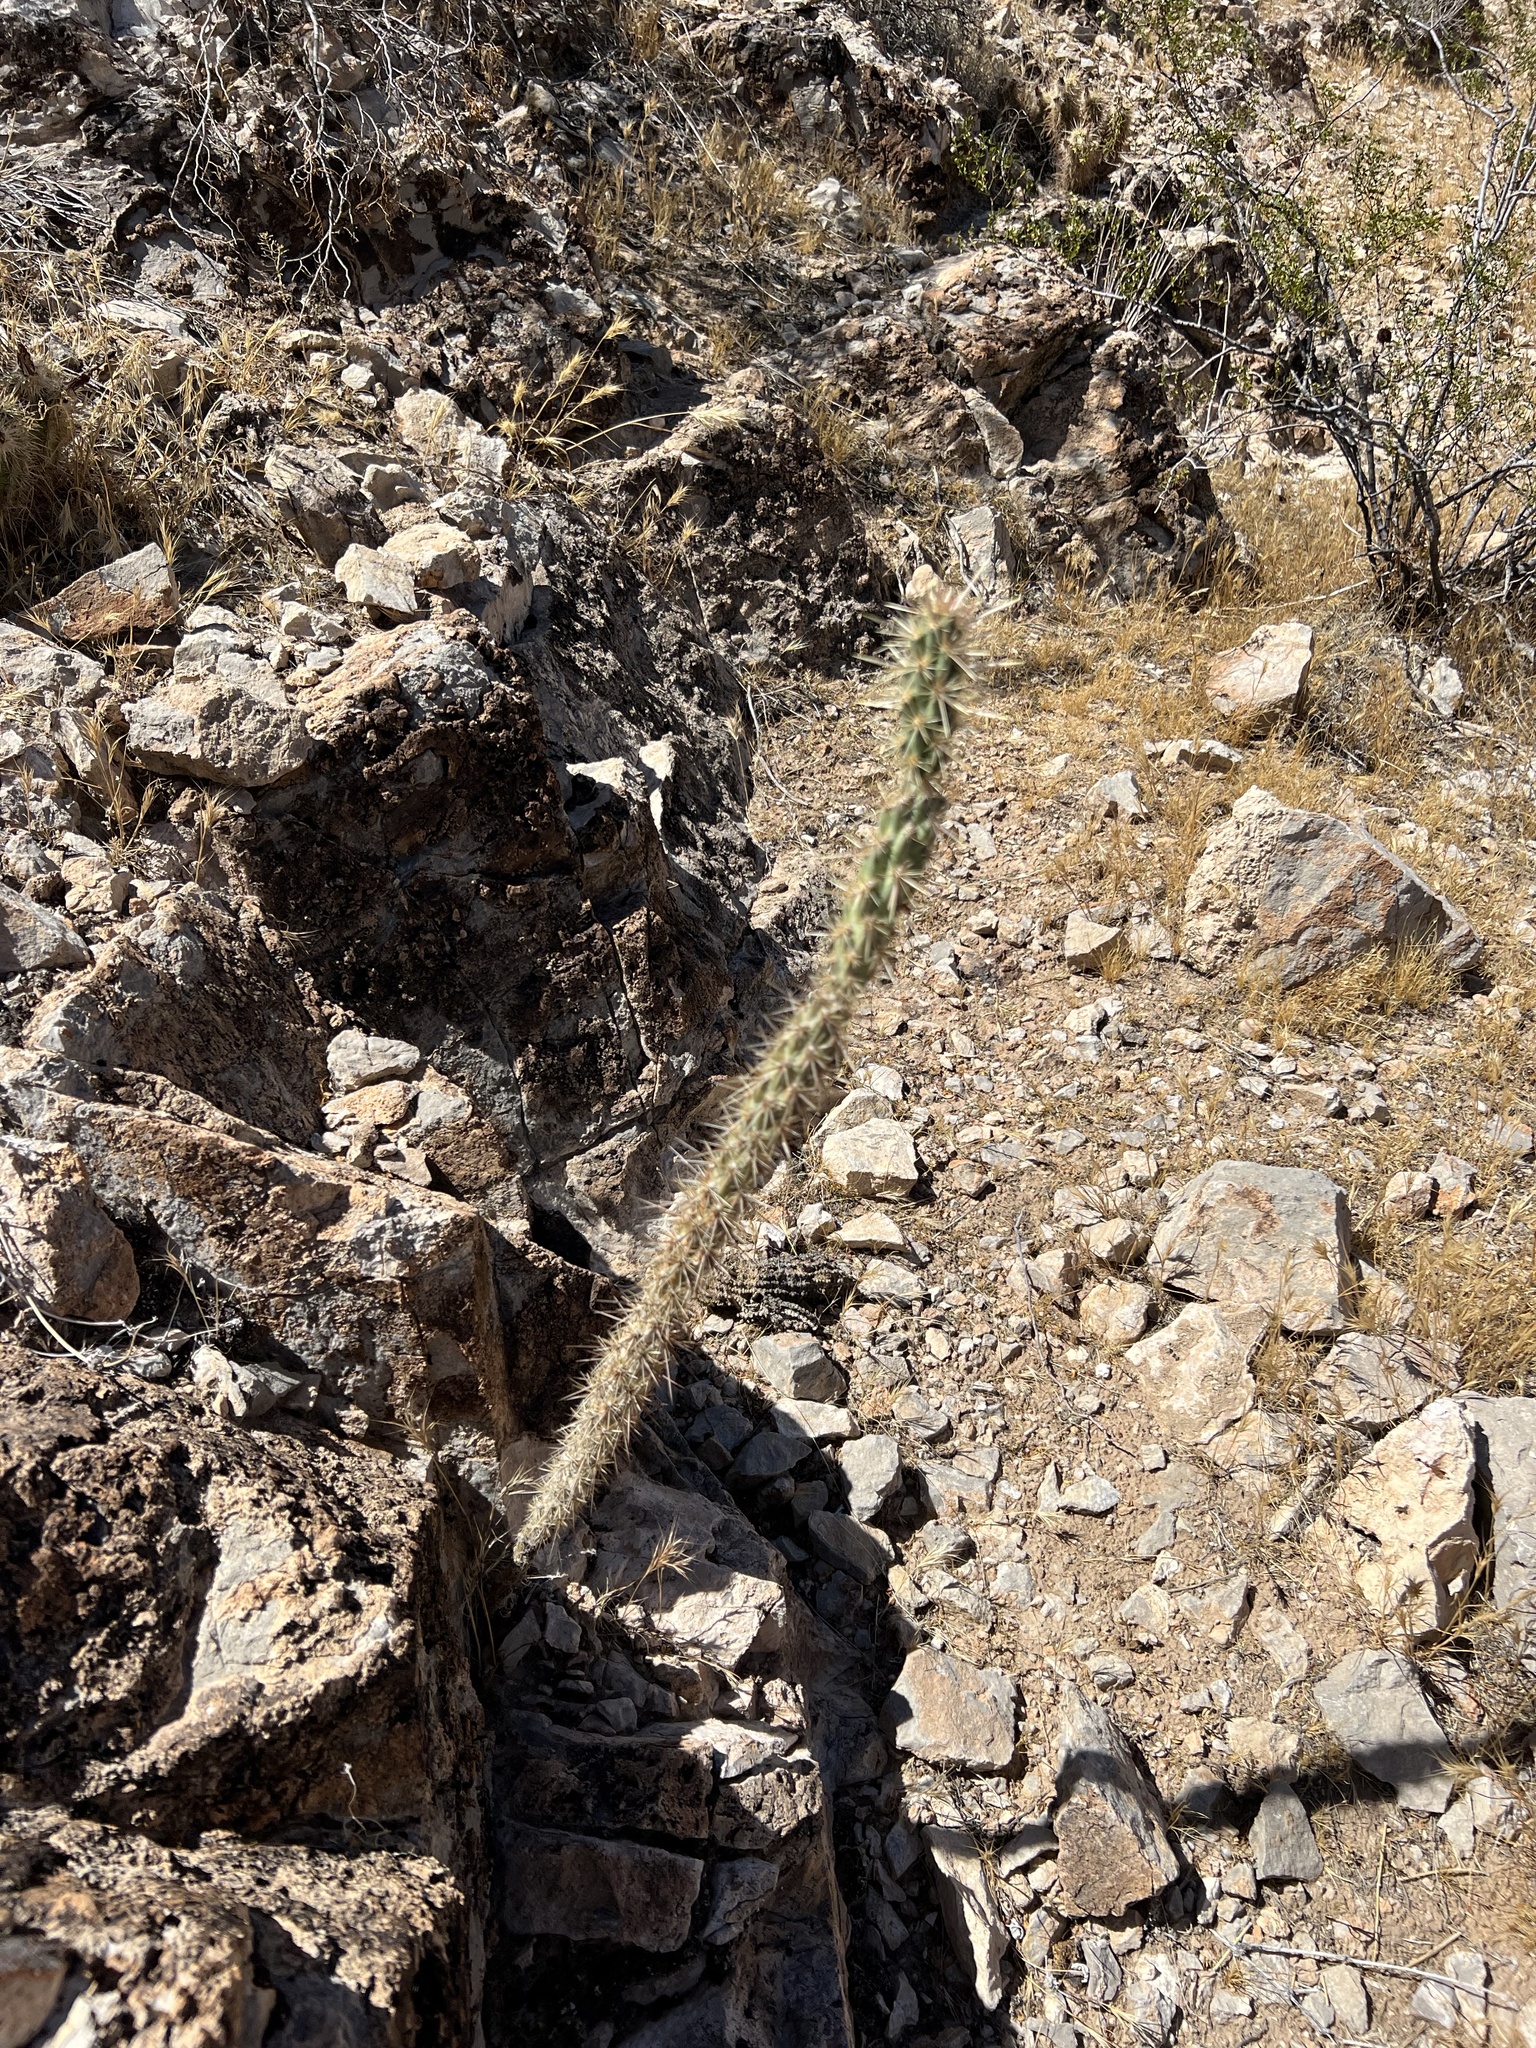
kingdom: Plantae
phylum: Tracheophyta
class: Magnoliopsida
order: Caryophyllales
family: Cactaceae
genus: Cylindropuntia
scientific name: Cylindropuntia acanthocarpa
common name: Buckhorn cholla
